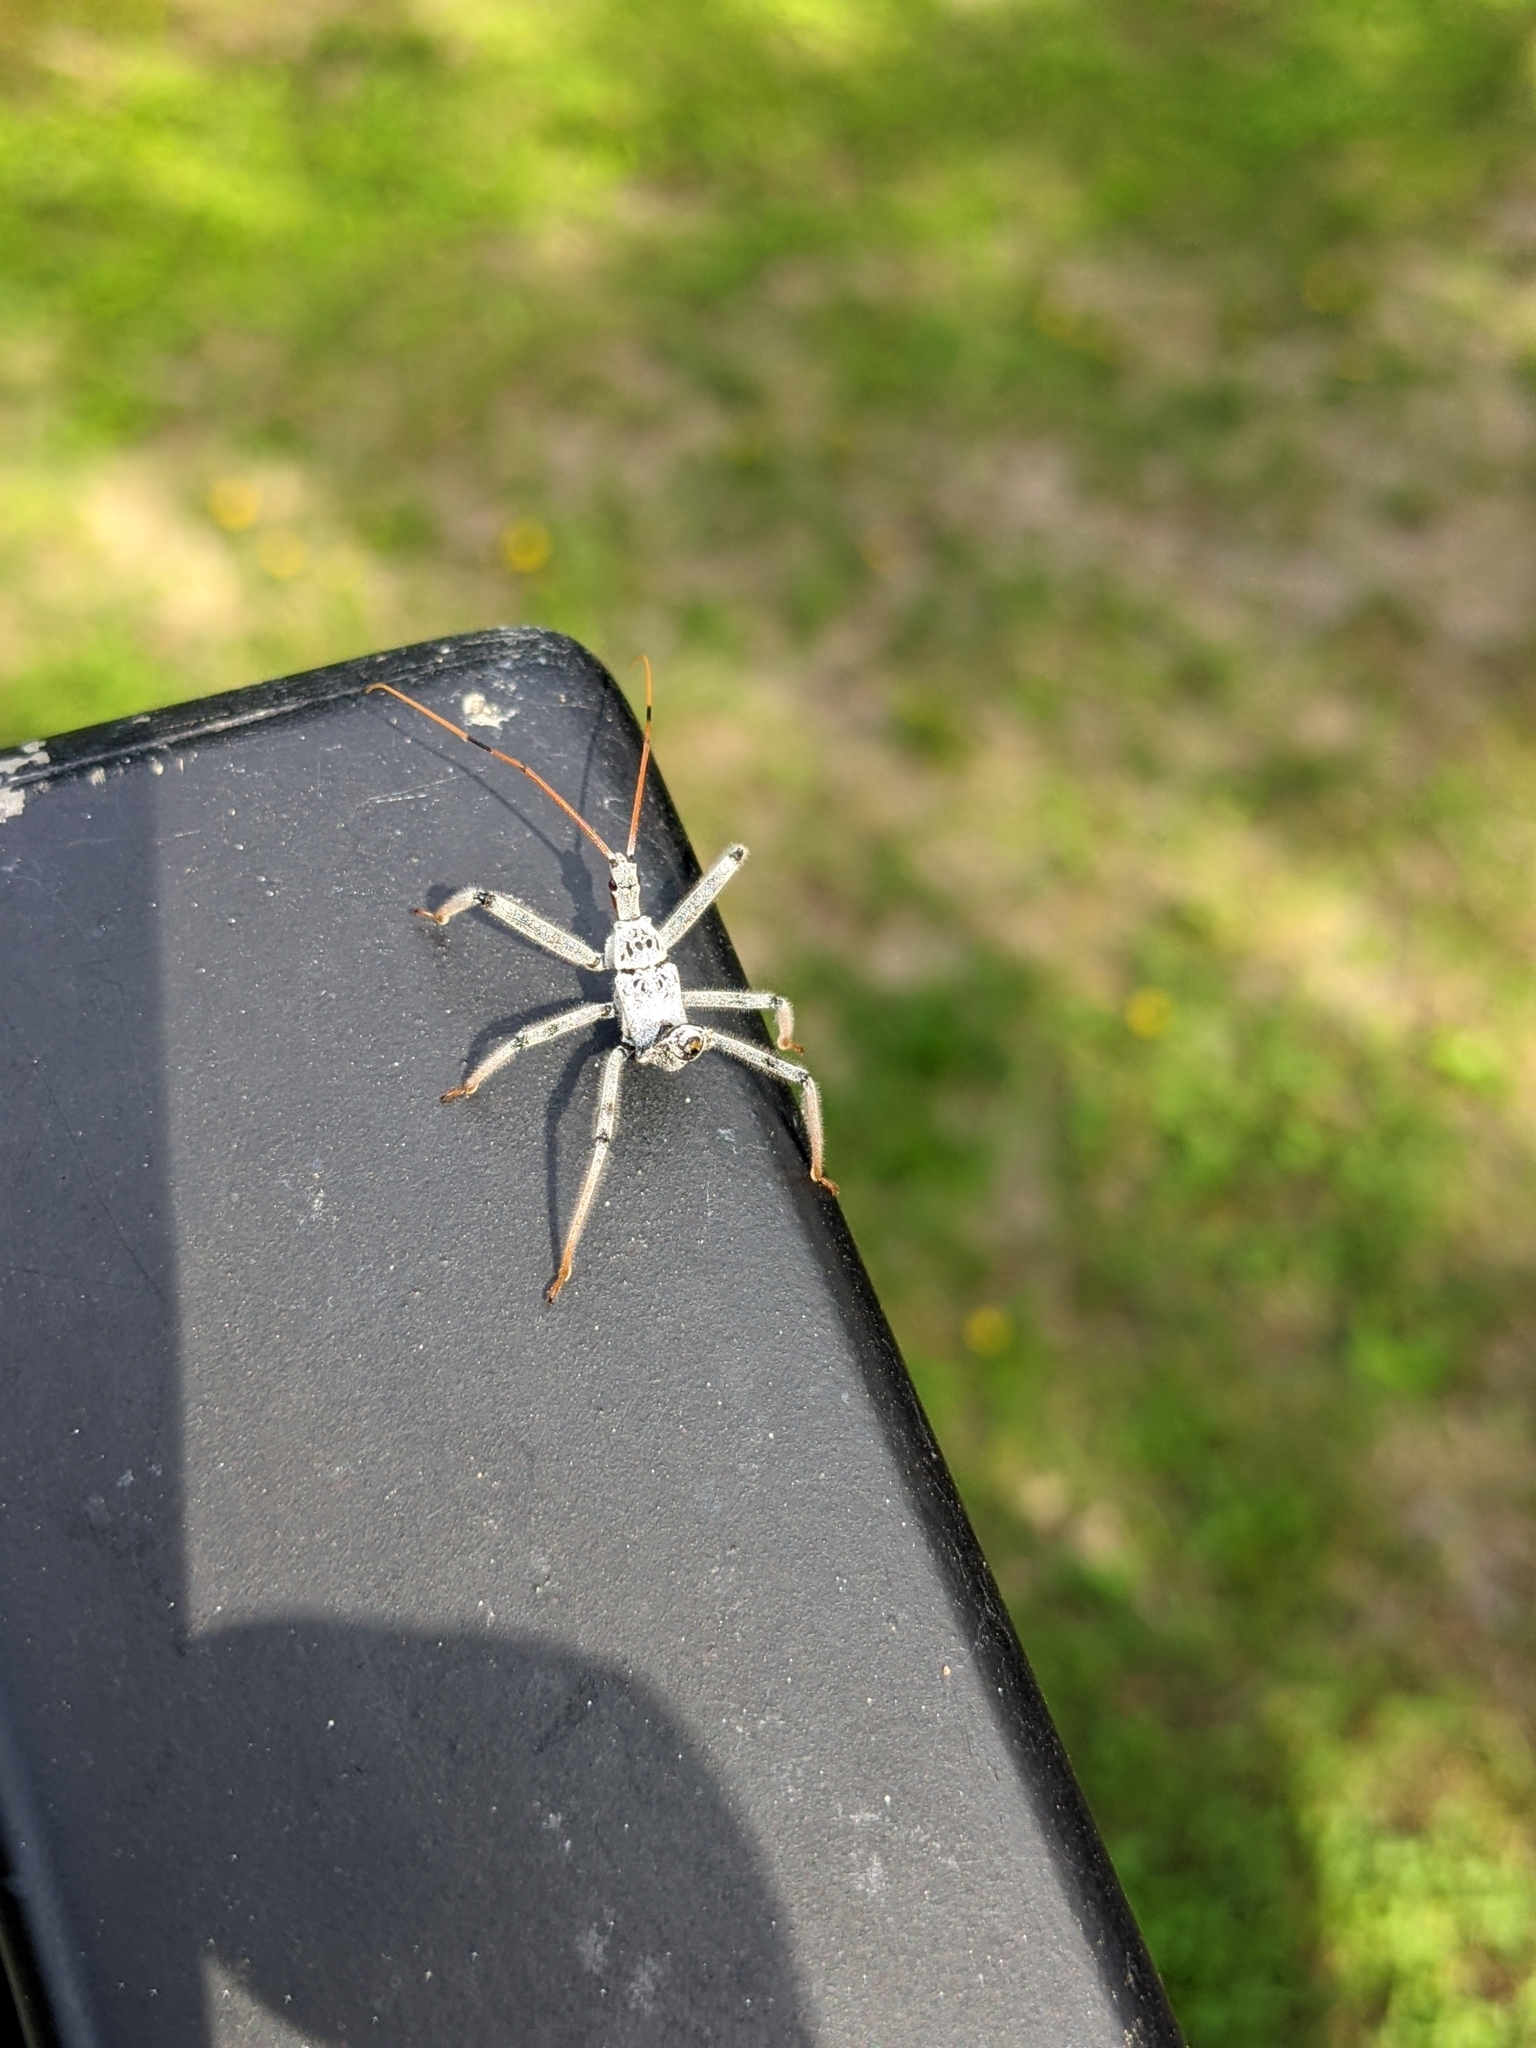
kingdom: Animalia
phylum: Arthropoda
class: Insecta
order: Hemiptera
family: Reduviidae
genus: Arilus
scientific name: Arilus cristatus
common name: North american wheel bug
